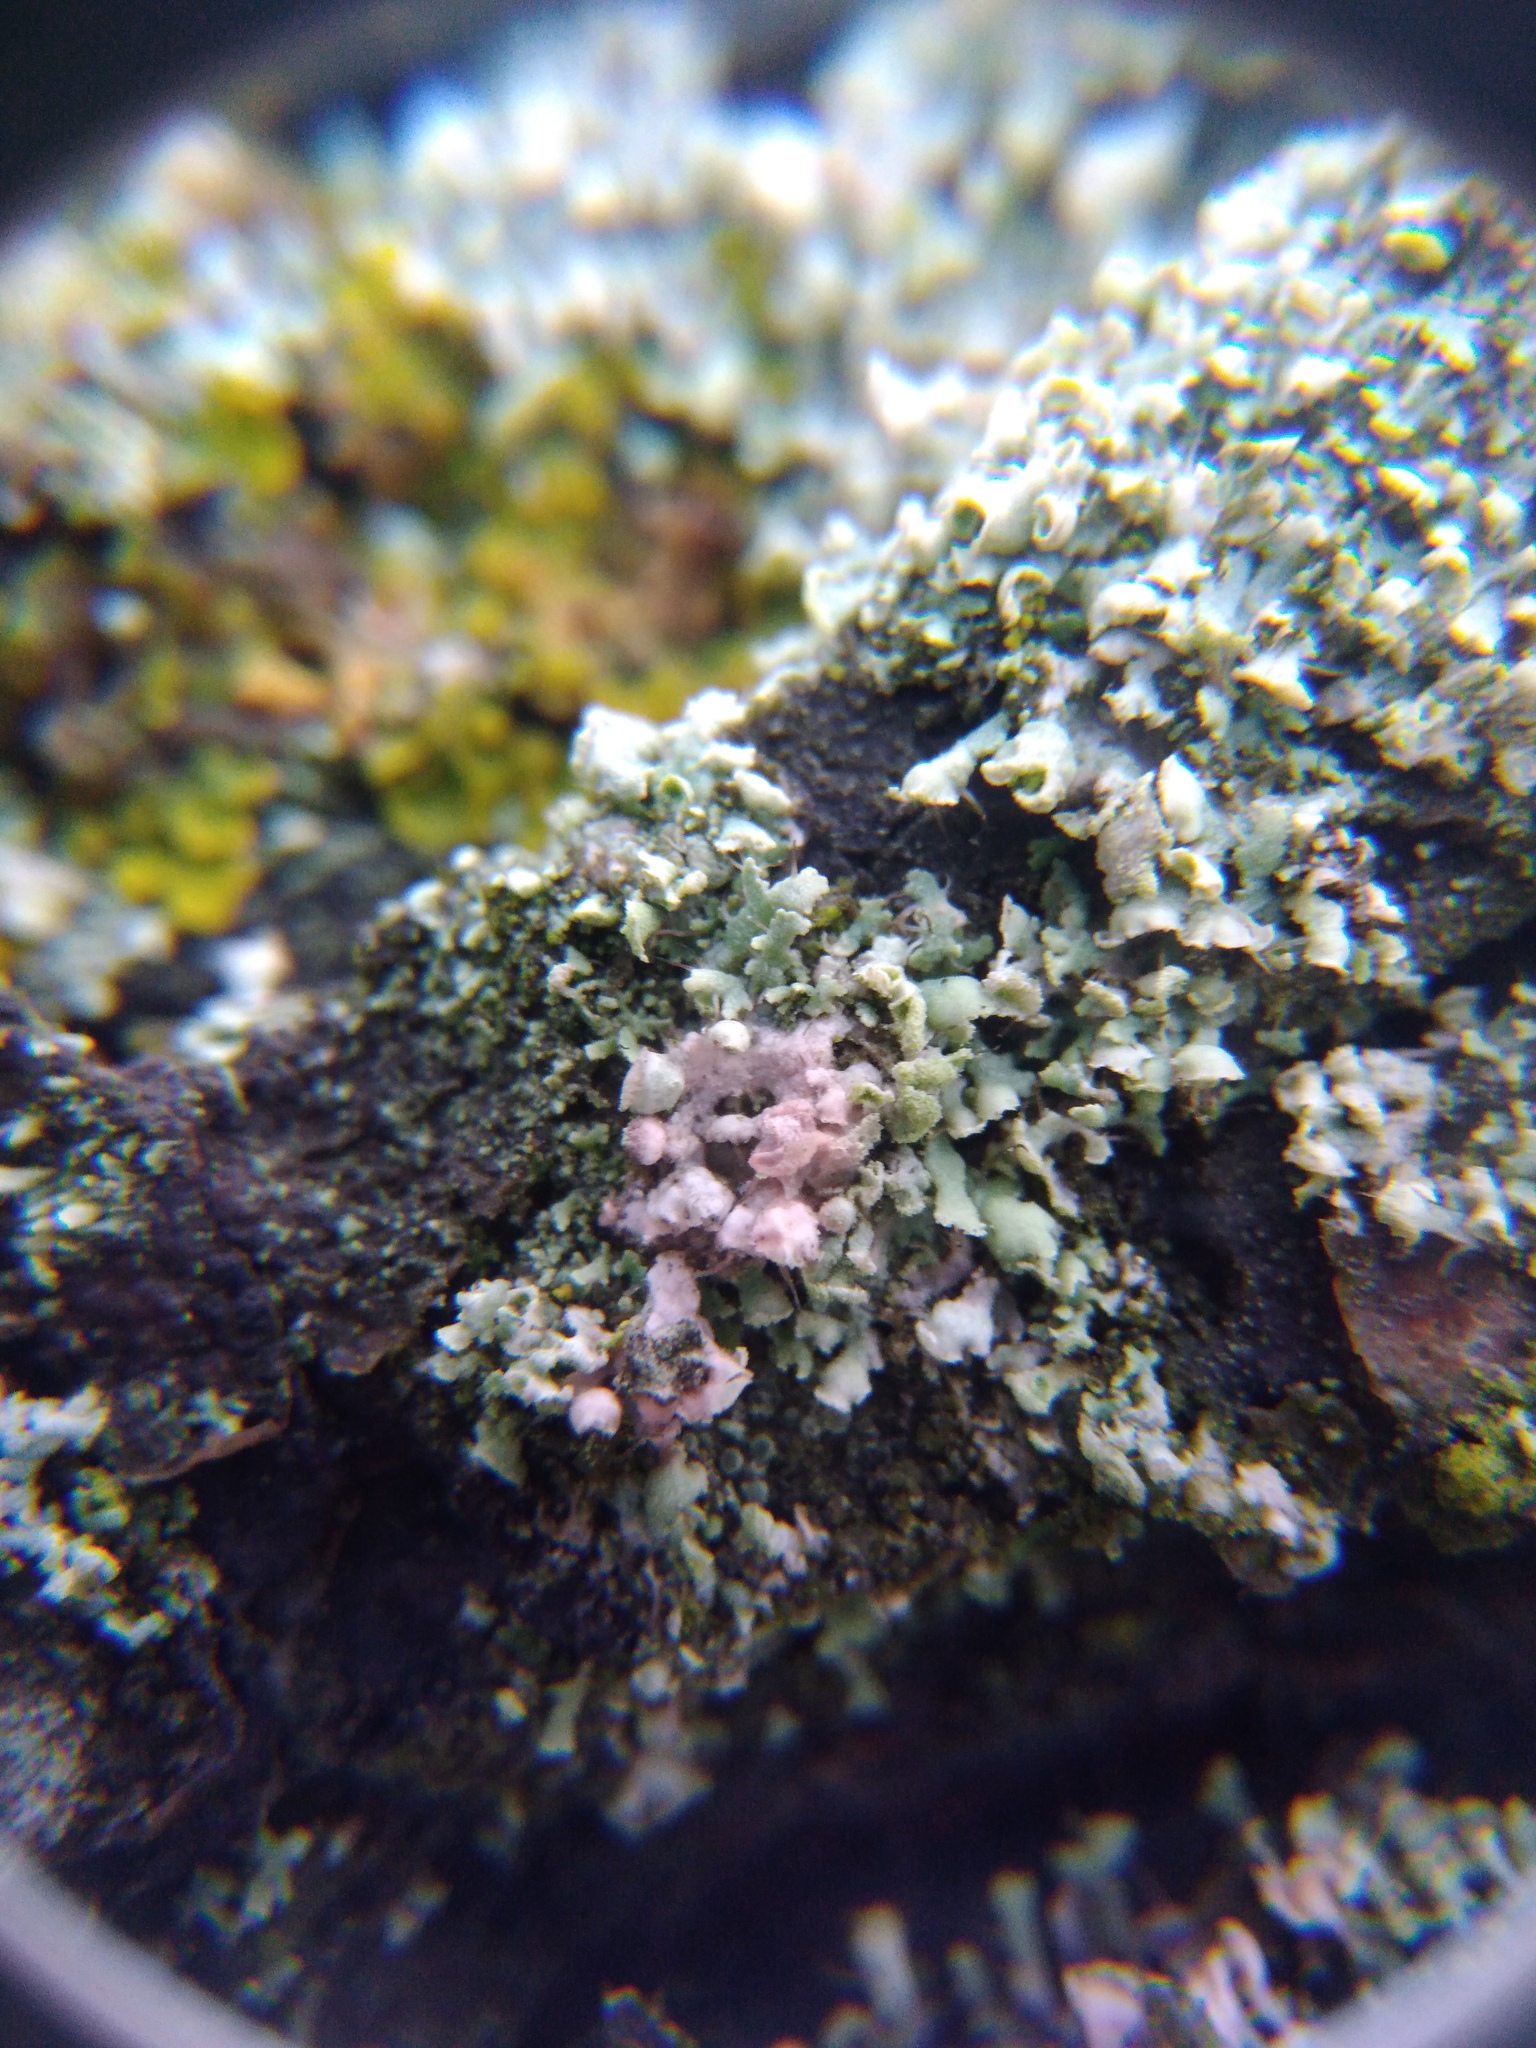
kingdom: Fungi
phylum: Basidiomycota
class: Agaricomycetes
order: Corticiales
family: Corticiaceae
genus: Laetisaria
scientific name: Laetisaria lichenicola
